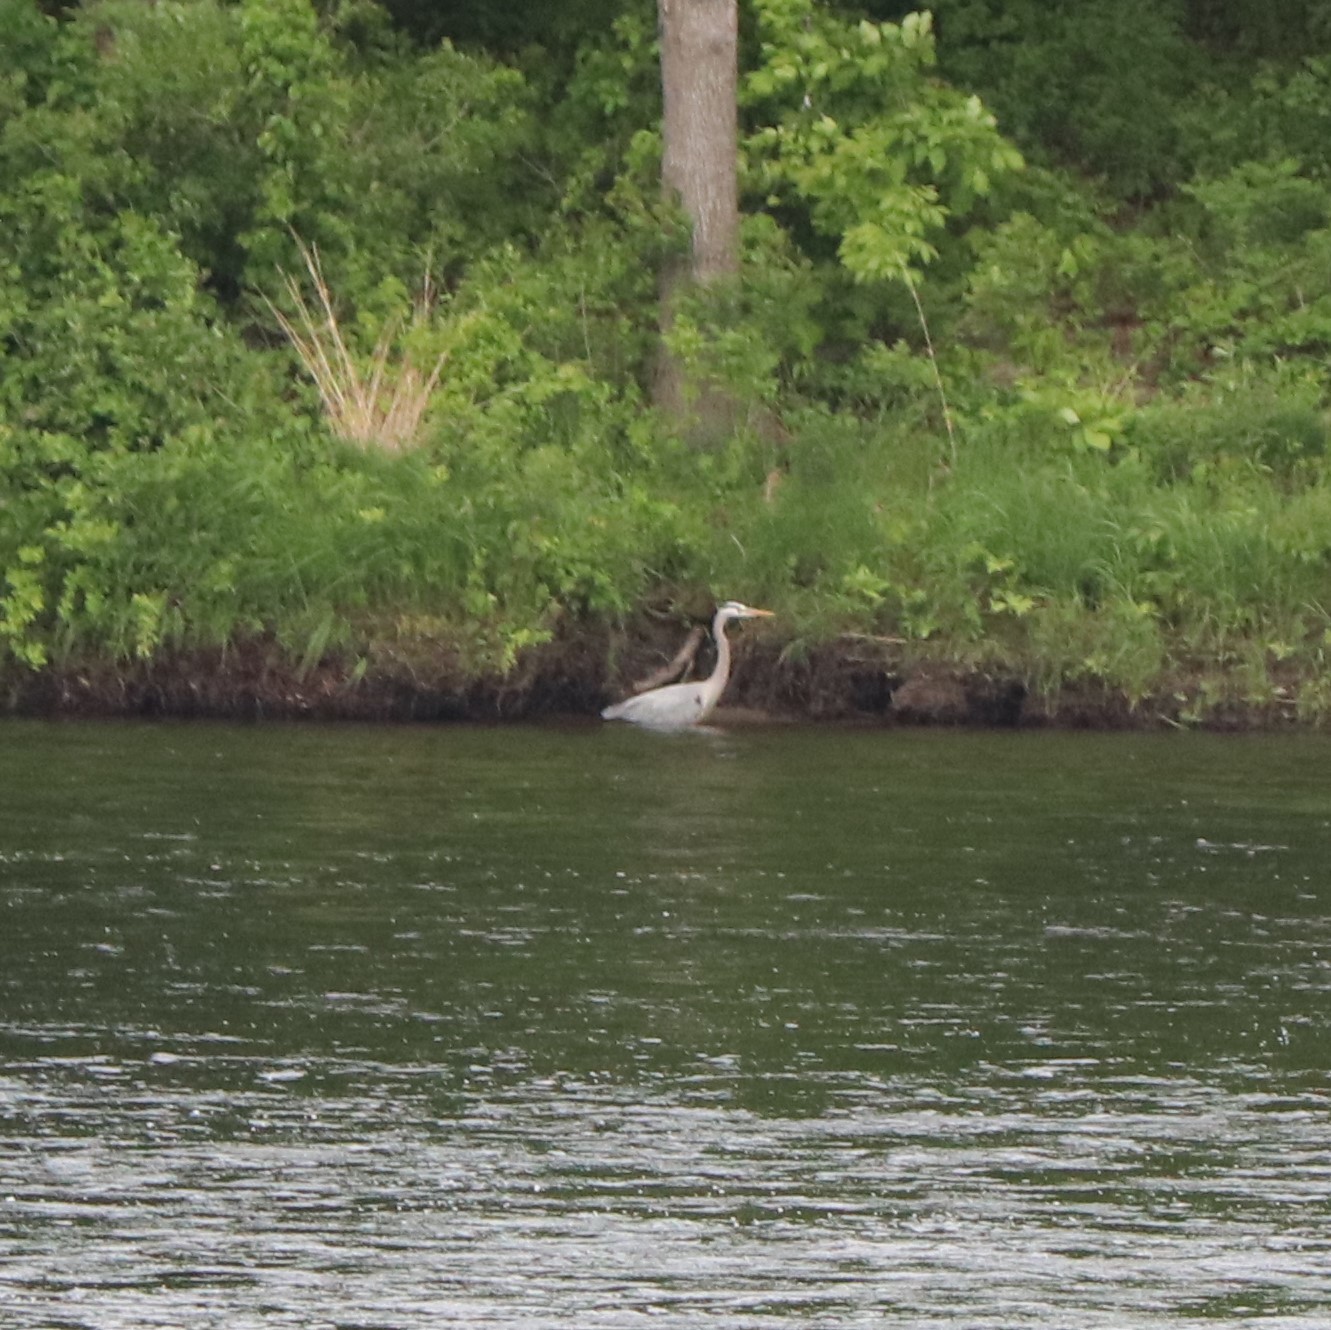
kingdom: Animalia
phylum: Chordata
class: Aves
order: Pelecaniformes
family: Ardeidae
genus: Ardea
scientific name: Ardea herodias
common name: Great blue heron
